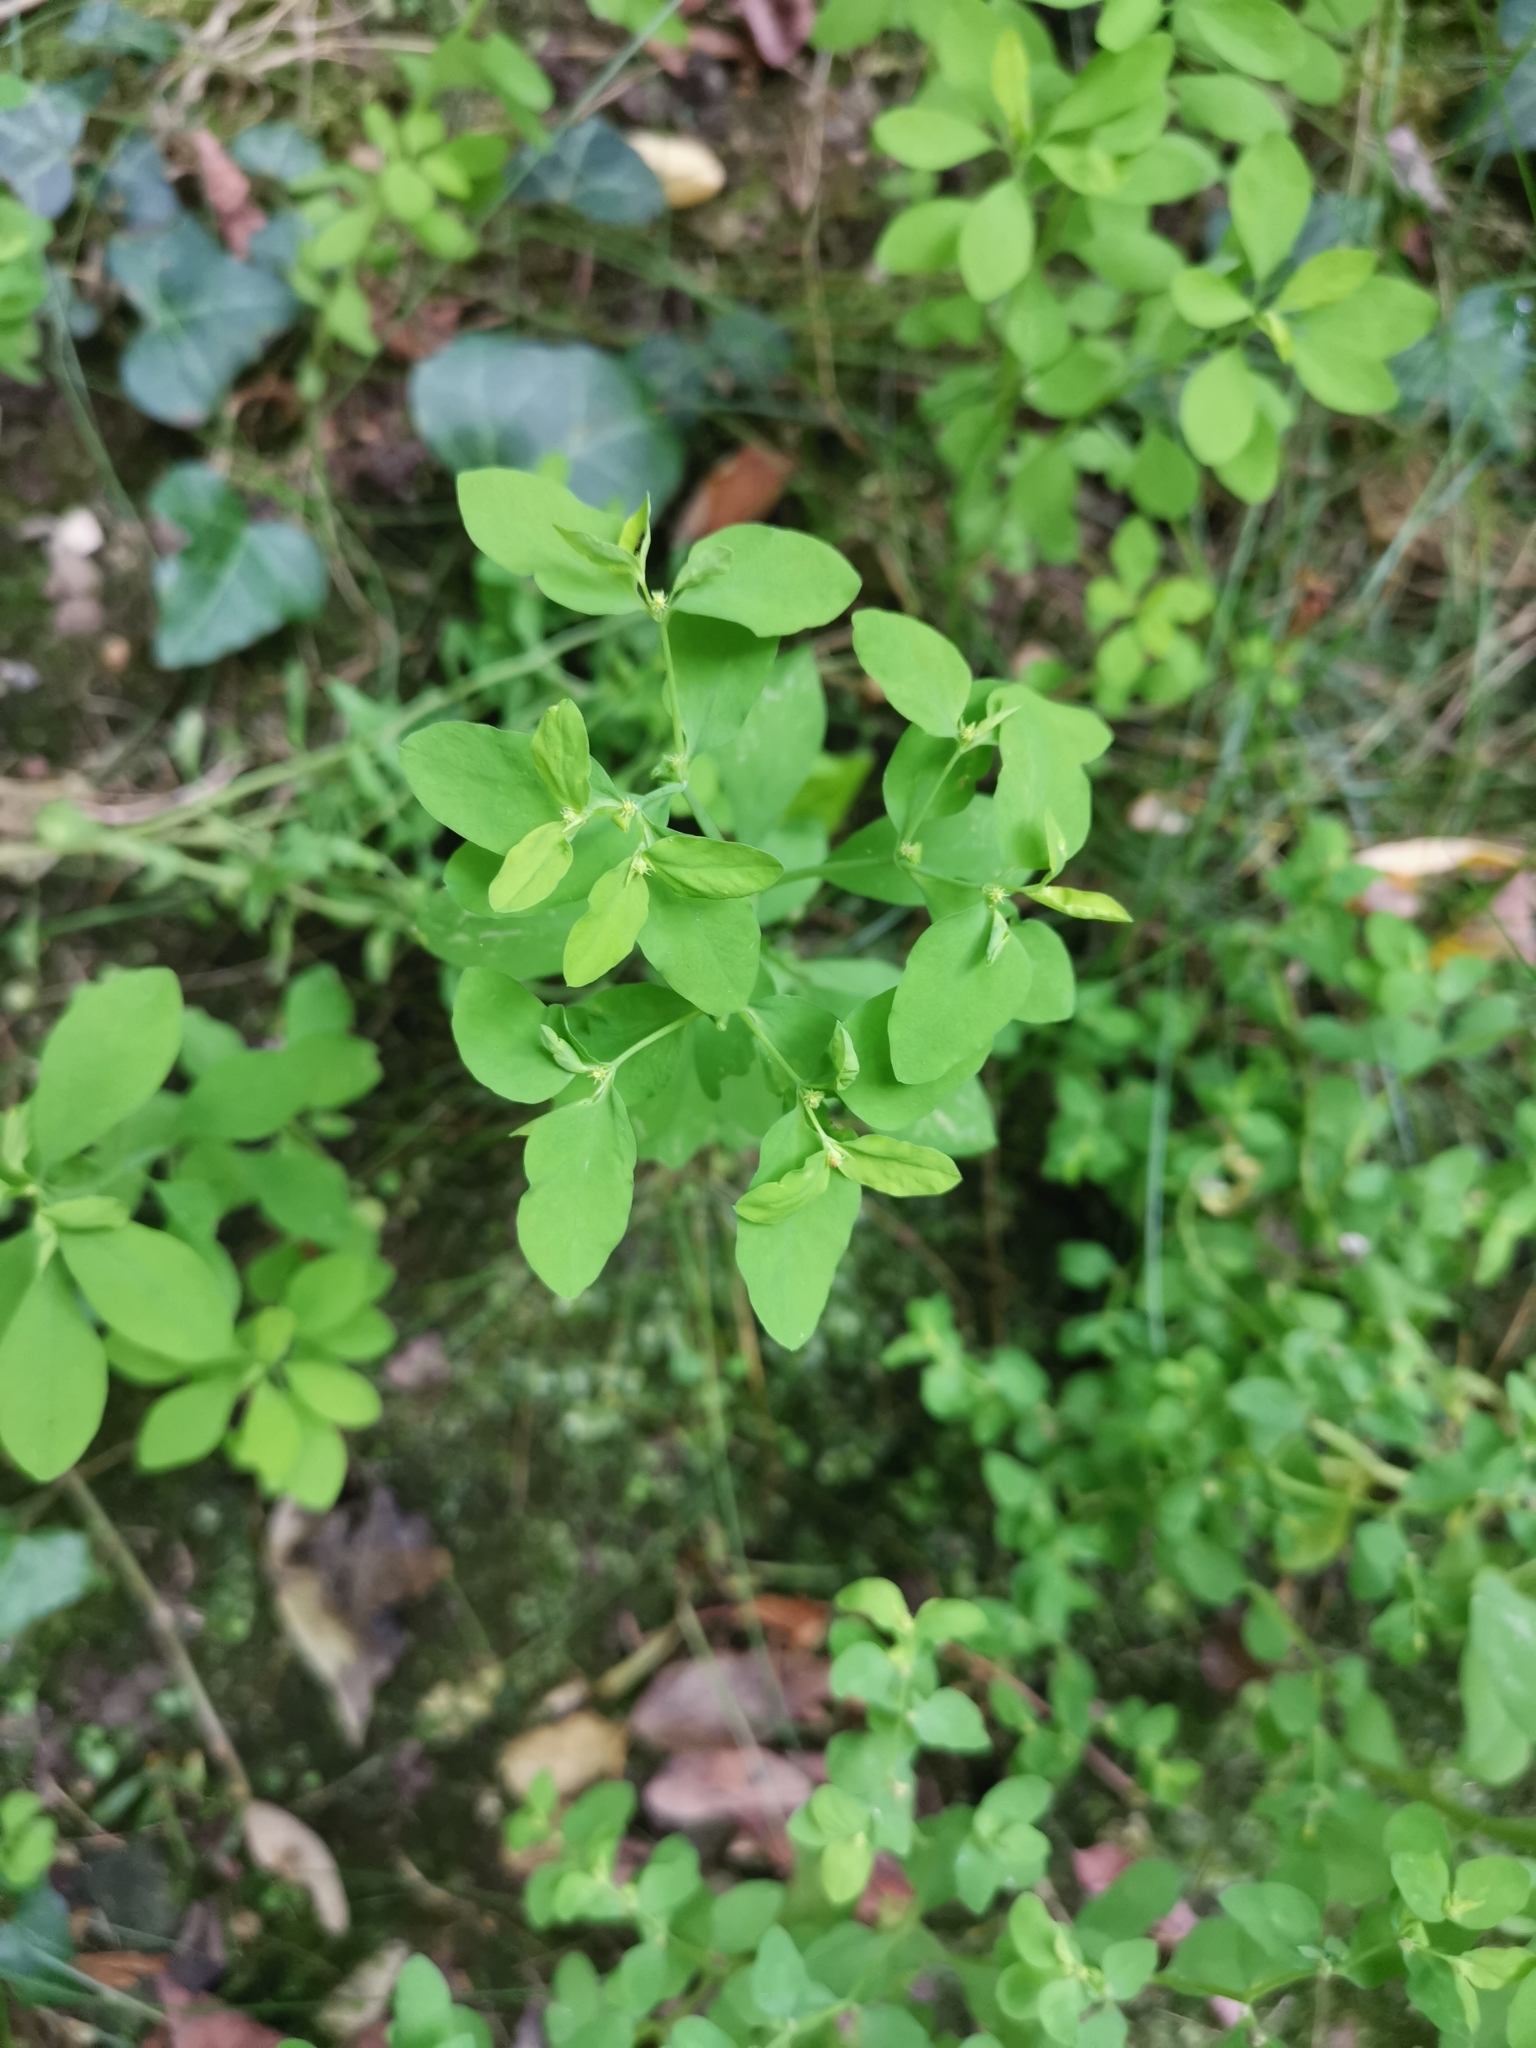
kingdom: Plantae
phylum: Tracheophyta
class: Magnoliopsida
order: Malpighiales
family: Euphorbiaceae
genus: Euphorbia
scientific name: Euphorbia peplus
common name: Petty spurge
